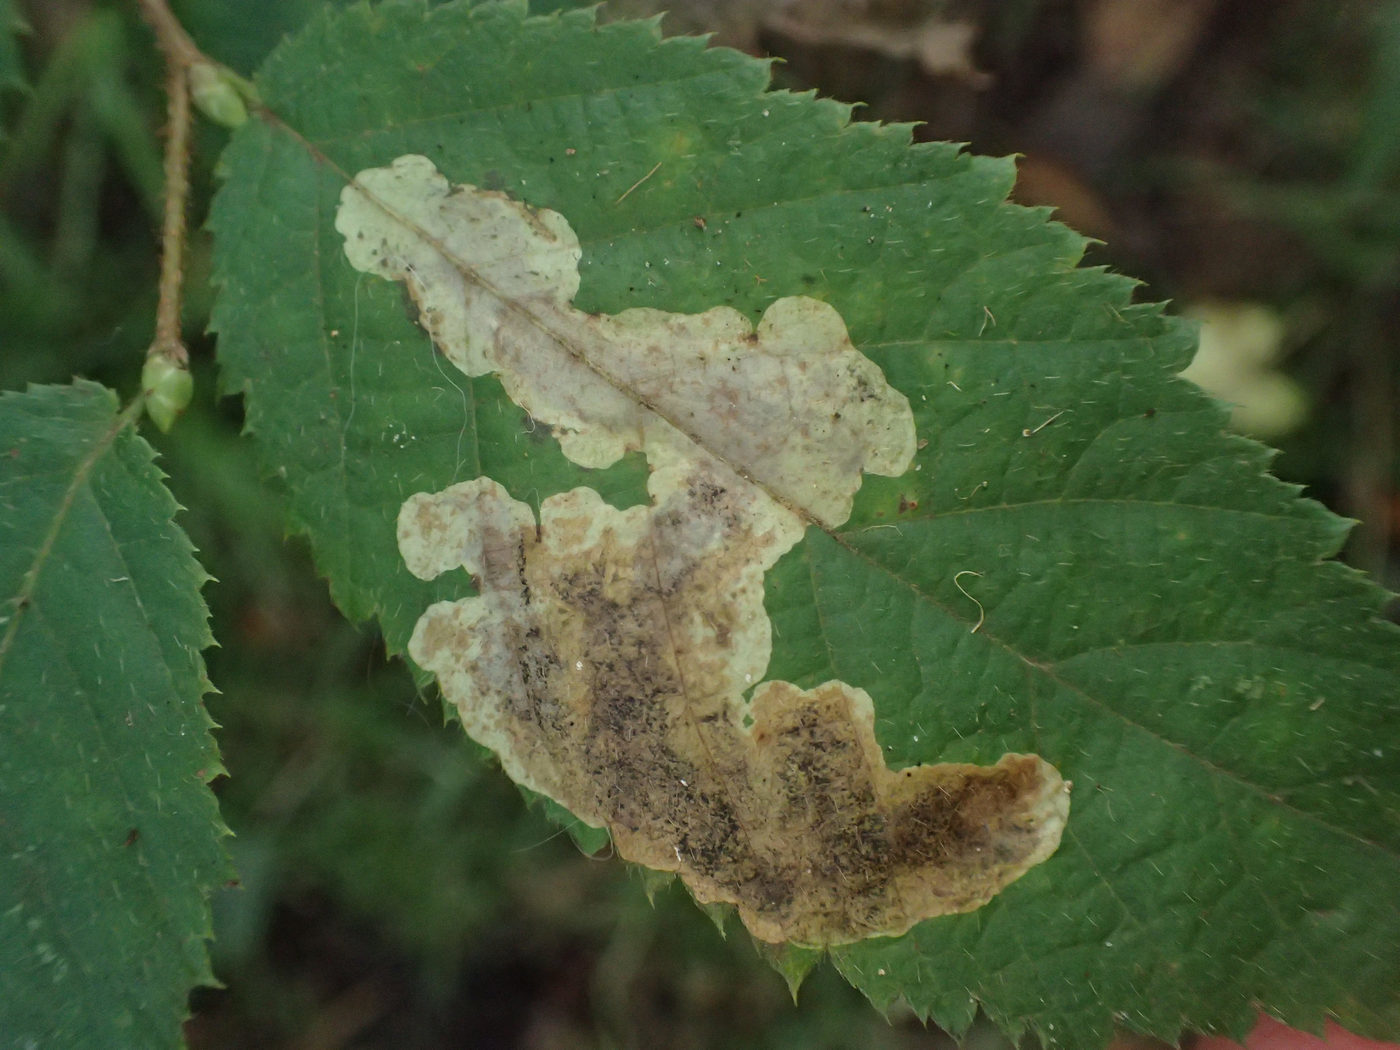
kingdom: Animalia
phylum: Arthropoda
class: Insecta
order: Lepidoptera
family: Gracillariidae
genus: Cameraria
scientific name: Cameraria corylisella
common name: Hazel blotchminer
